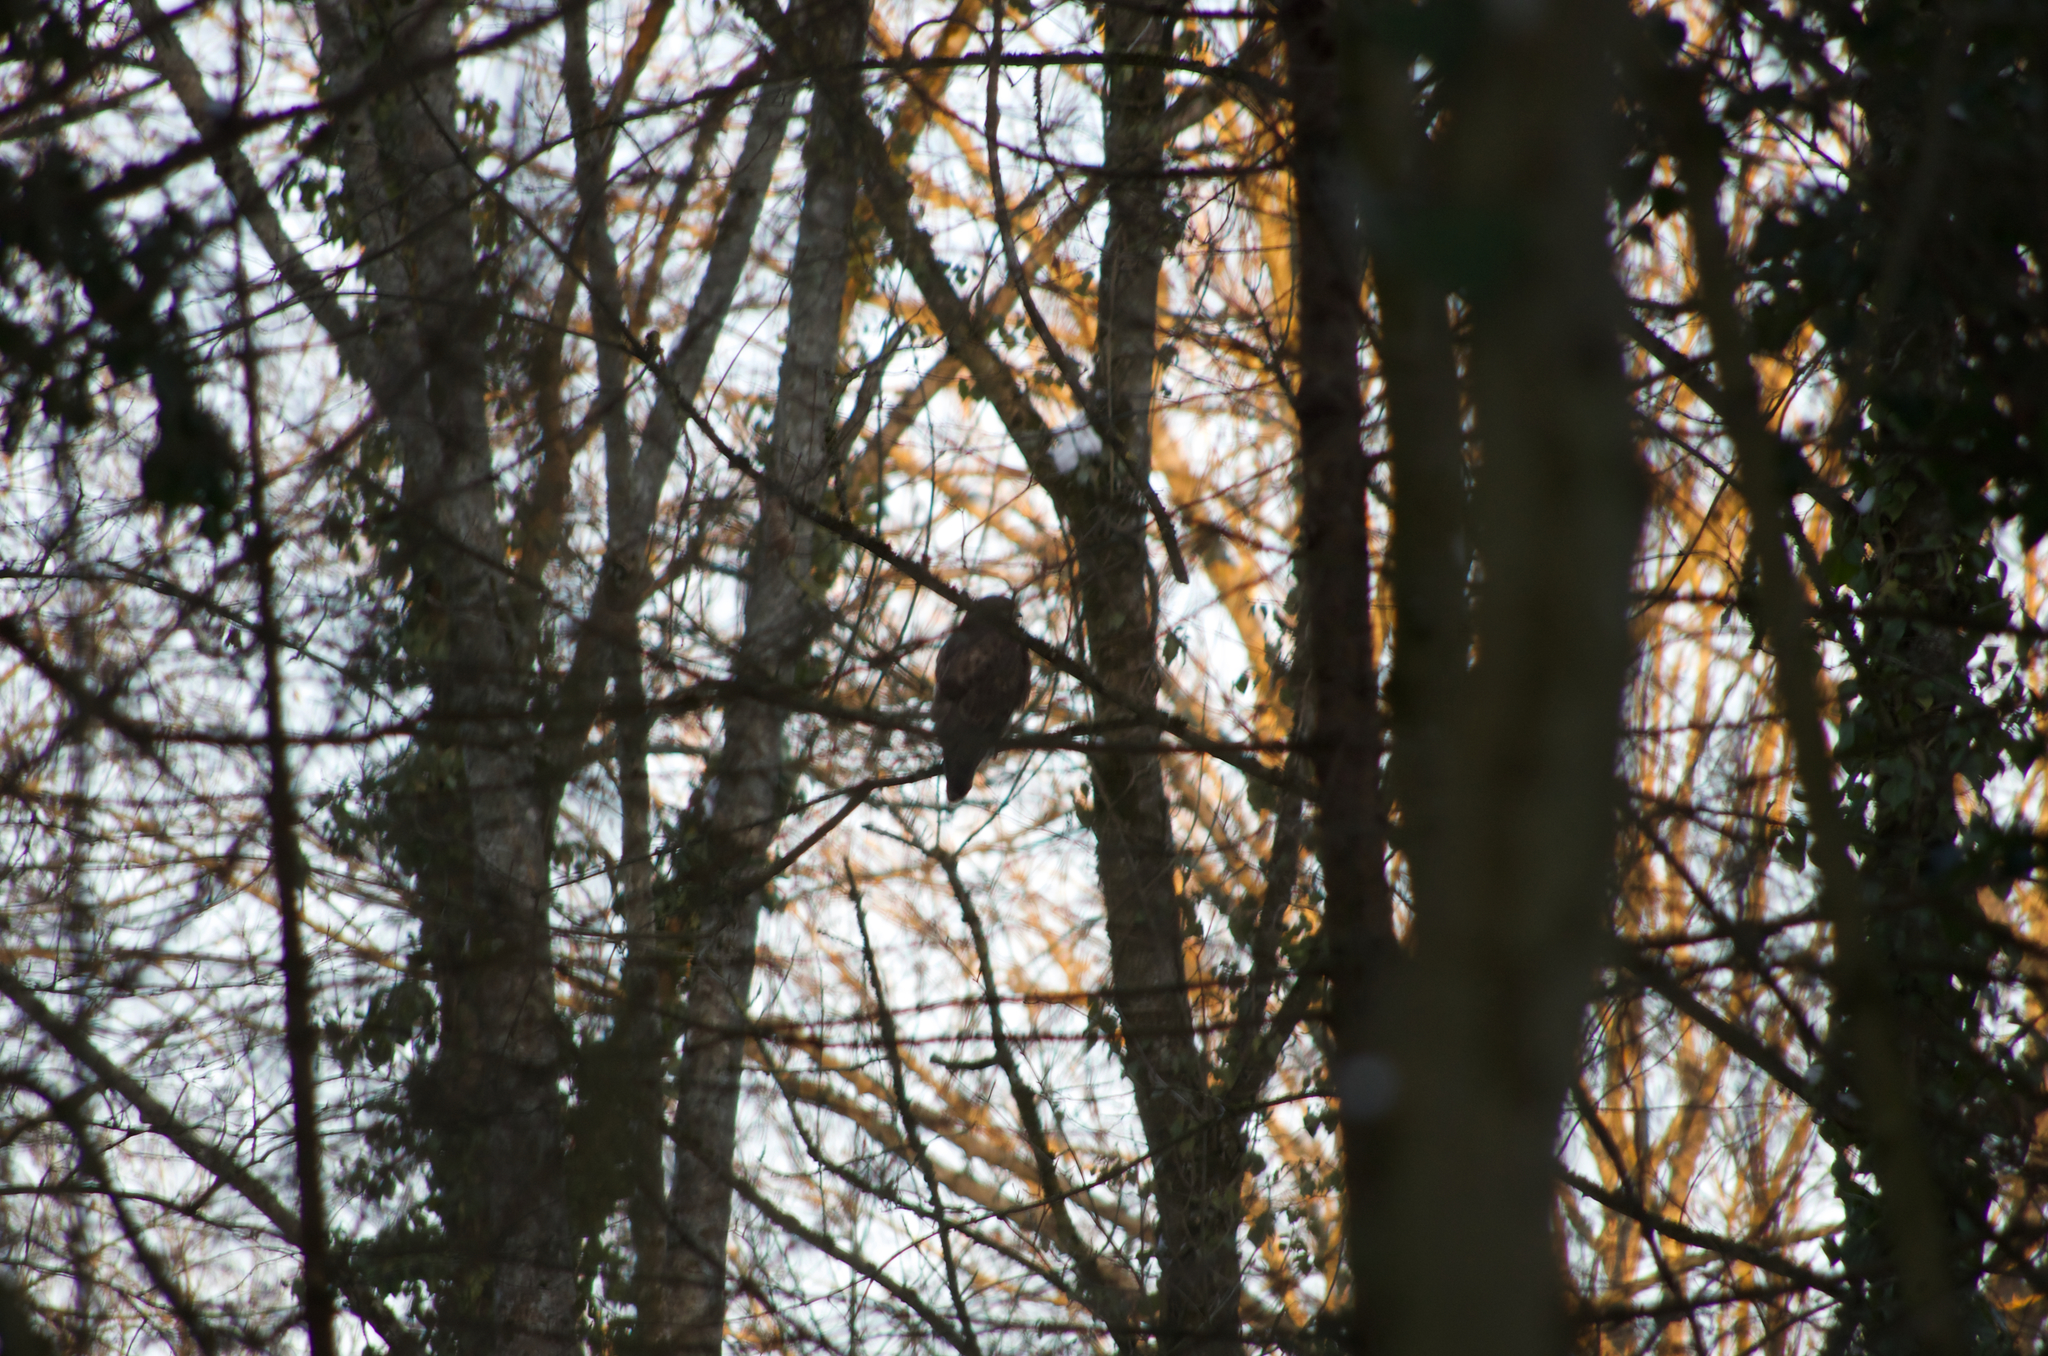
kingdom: Animalia
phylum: Chordata
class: Aves
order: Accipitriformes
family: Accipitridae
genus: Buteo
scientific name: Buteo buteo
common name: Common buzzard
